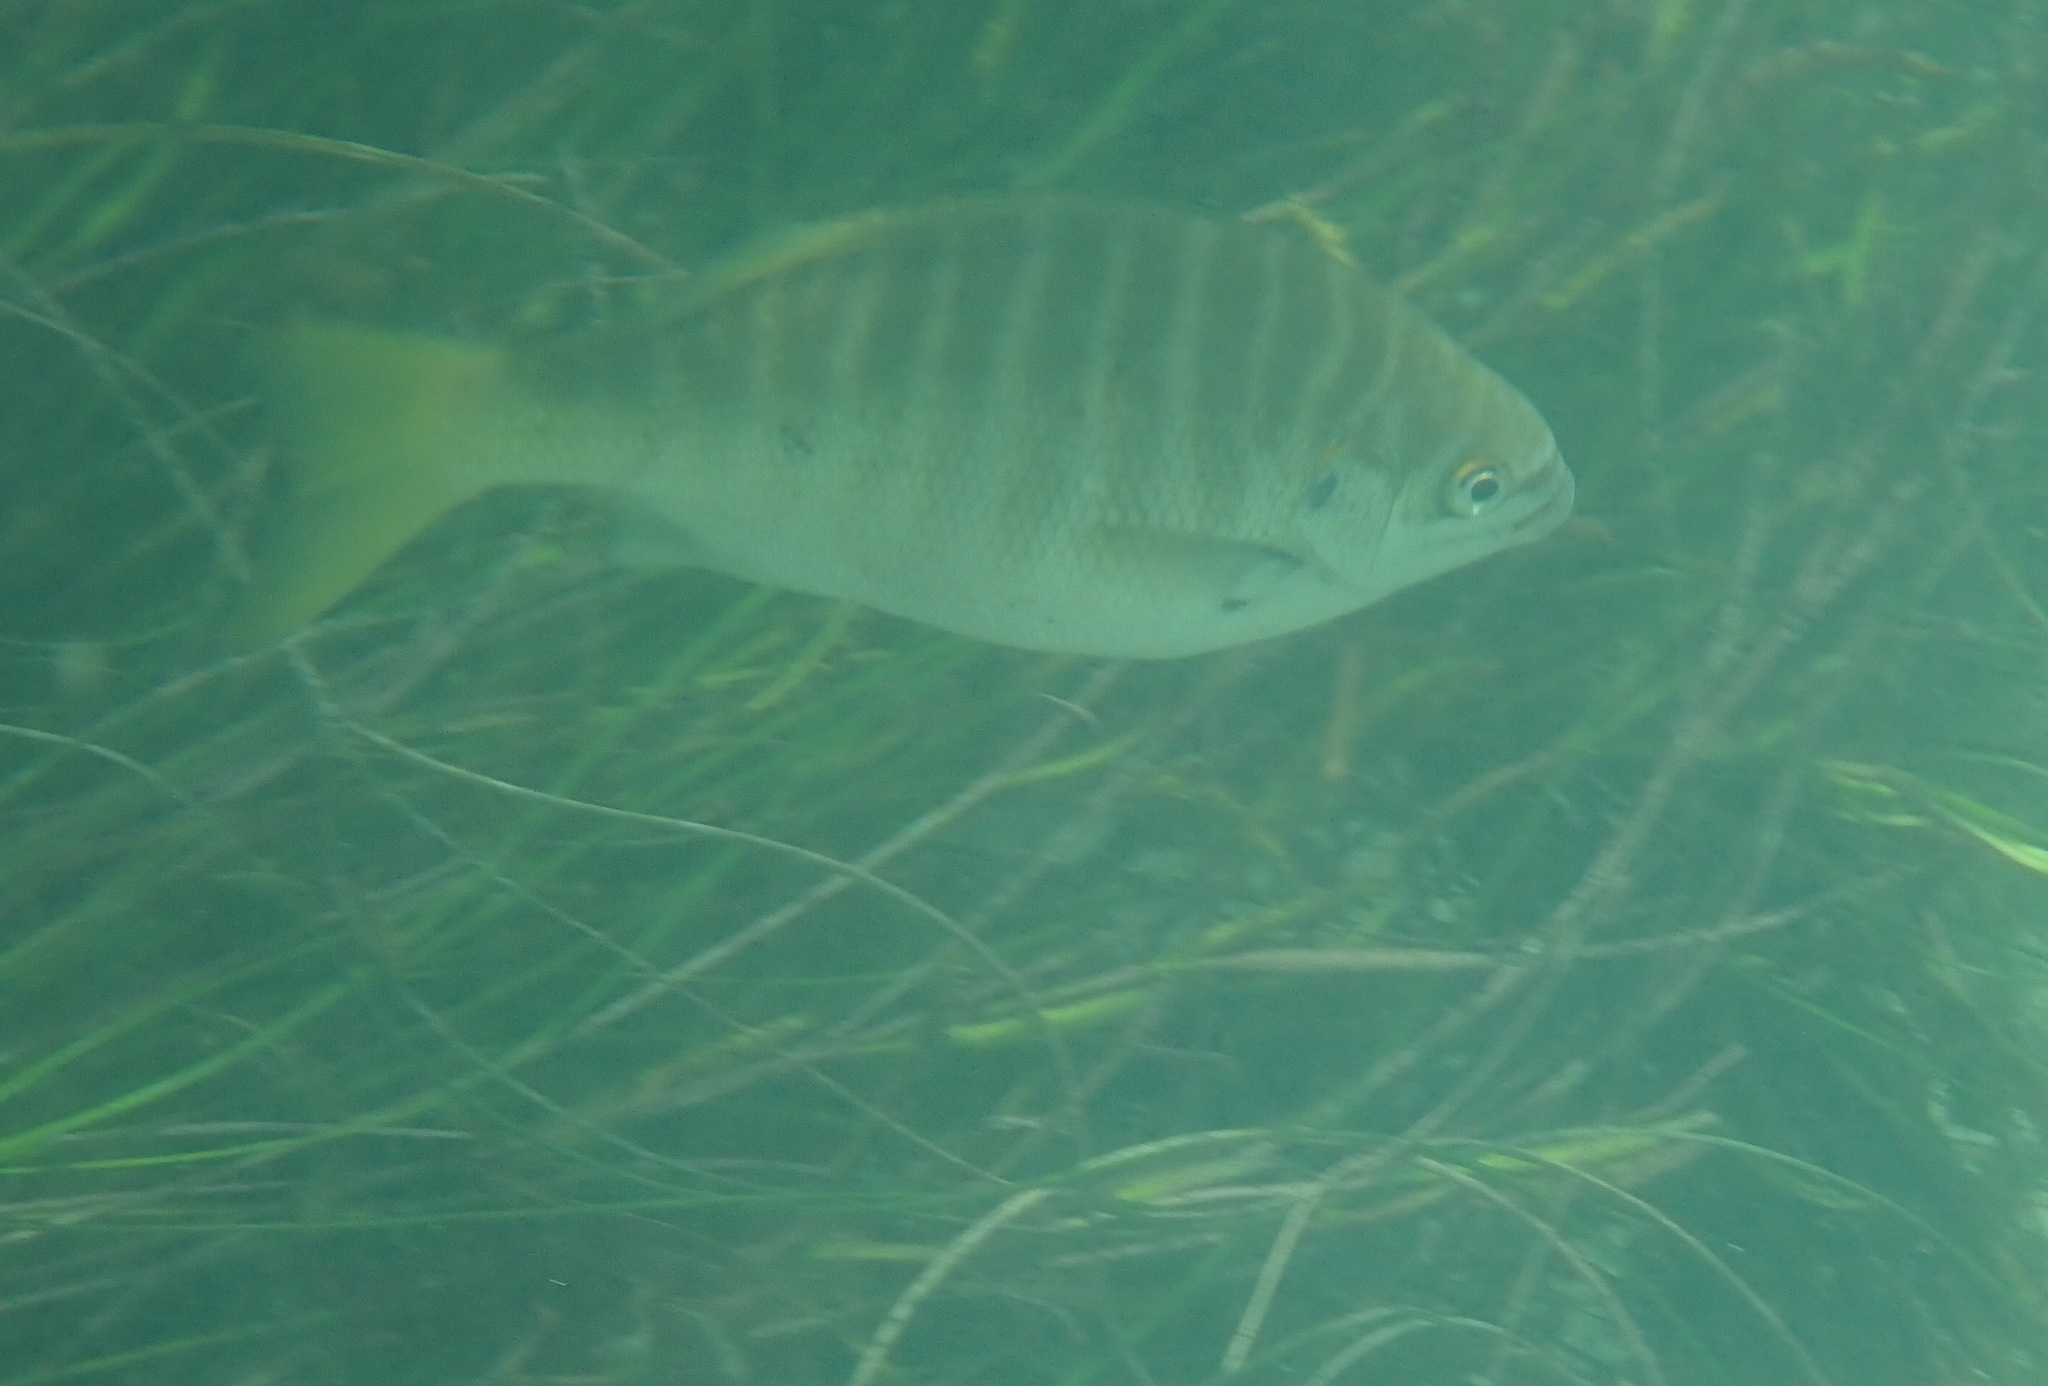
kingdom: Animalia
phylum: Chordata
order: Perciformes
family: Kyphosidae
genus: Kyphosus
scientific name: Kyphosus azureus
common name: Perch
